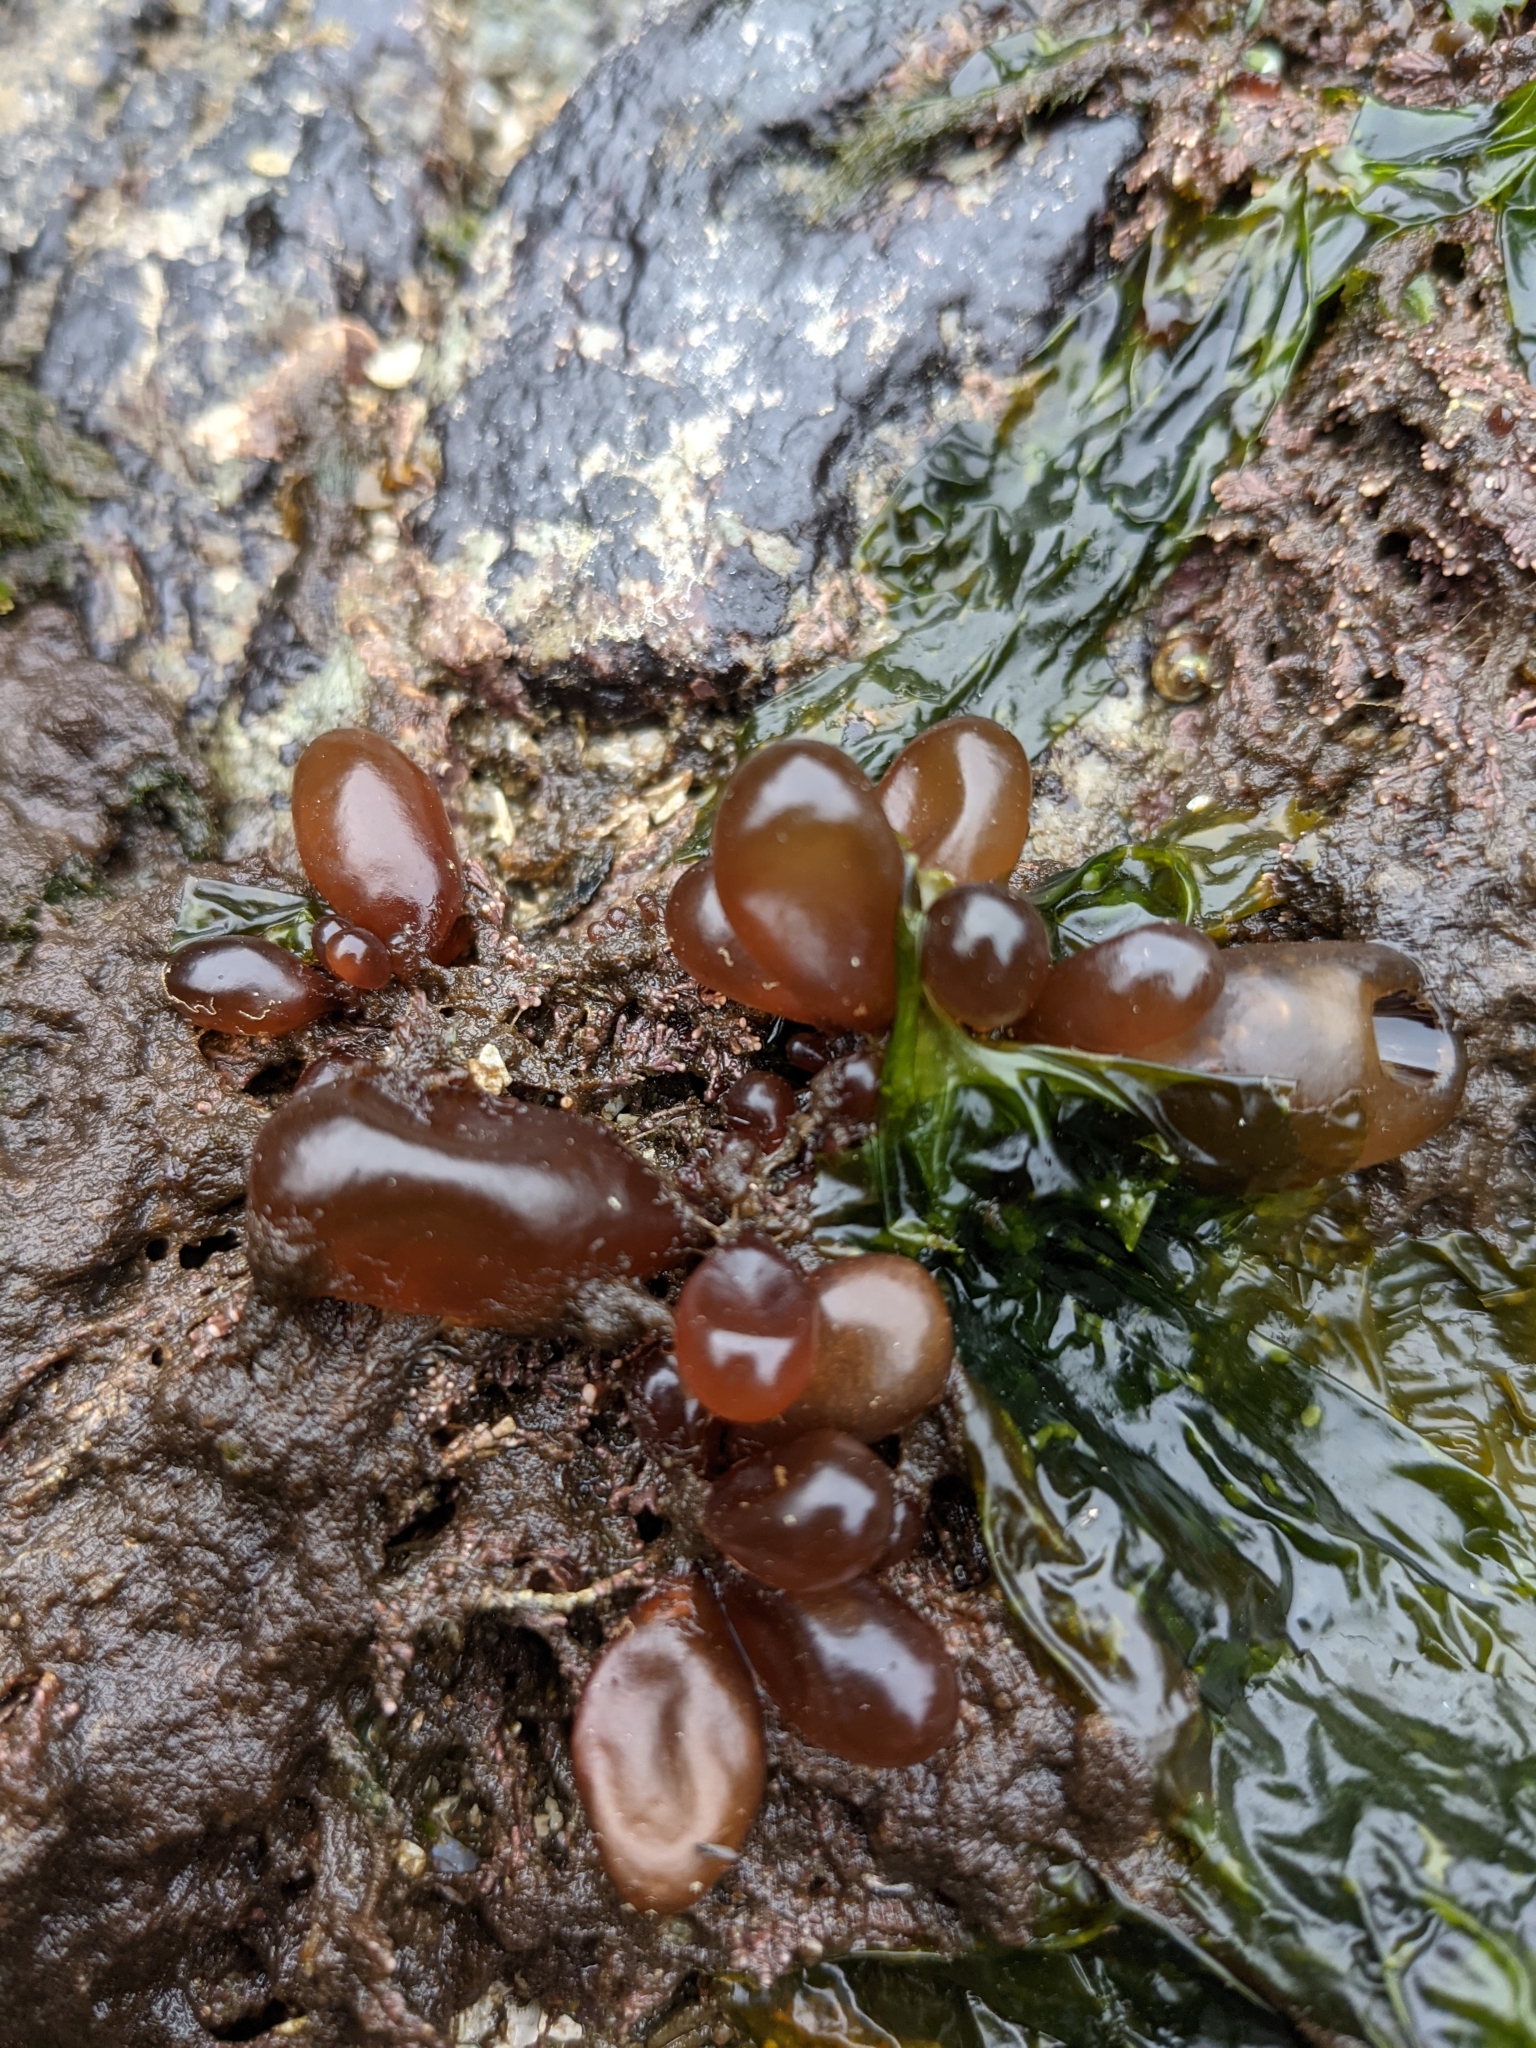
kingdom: Plantae
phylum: Rhodophyta
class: Florideophyceae
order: Palmariales
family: Palmariaceae
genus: Halosaccion
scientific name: Halosaccion glandiforme
